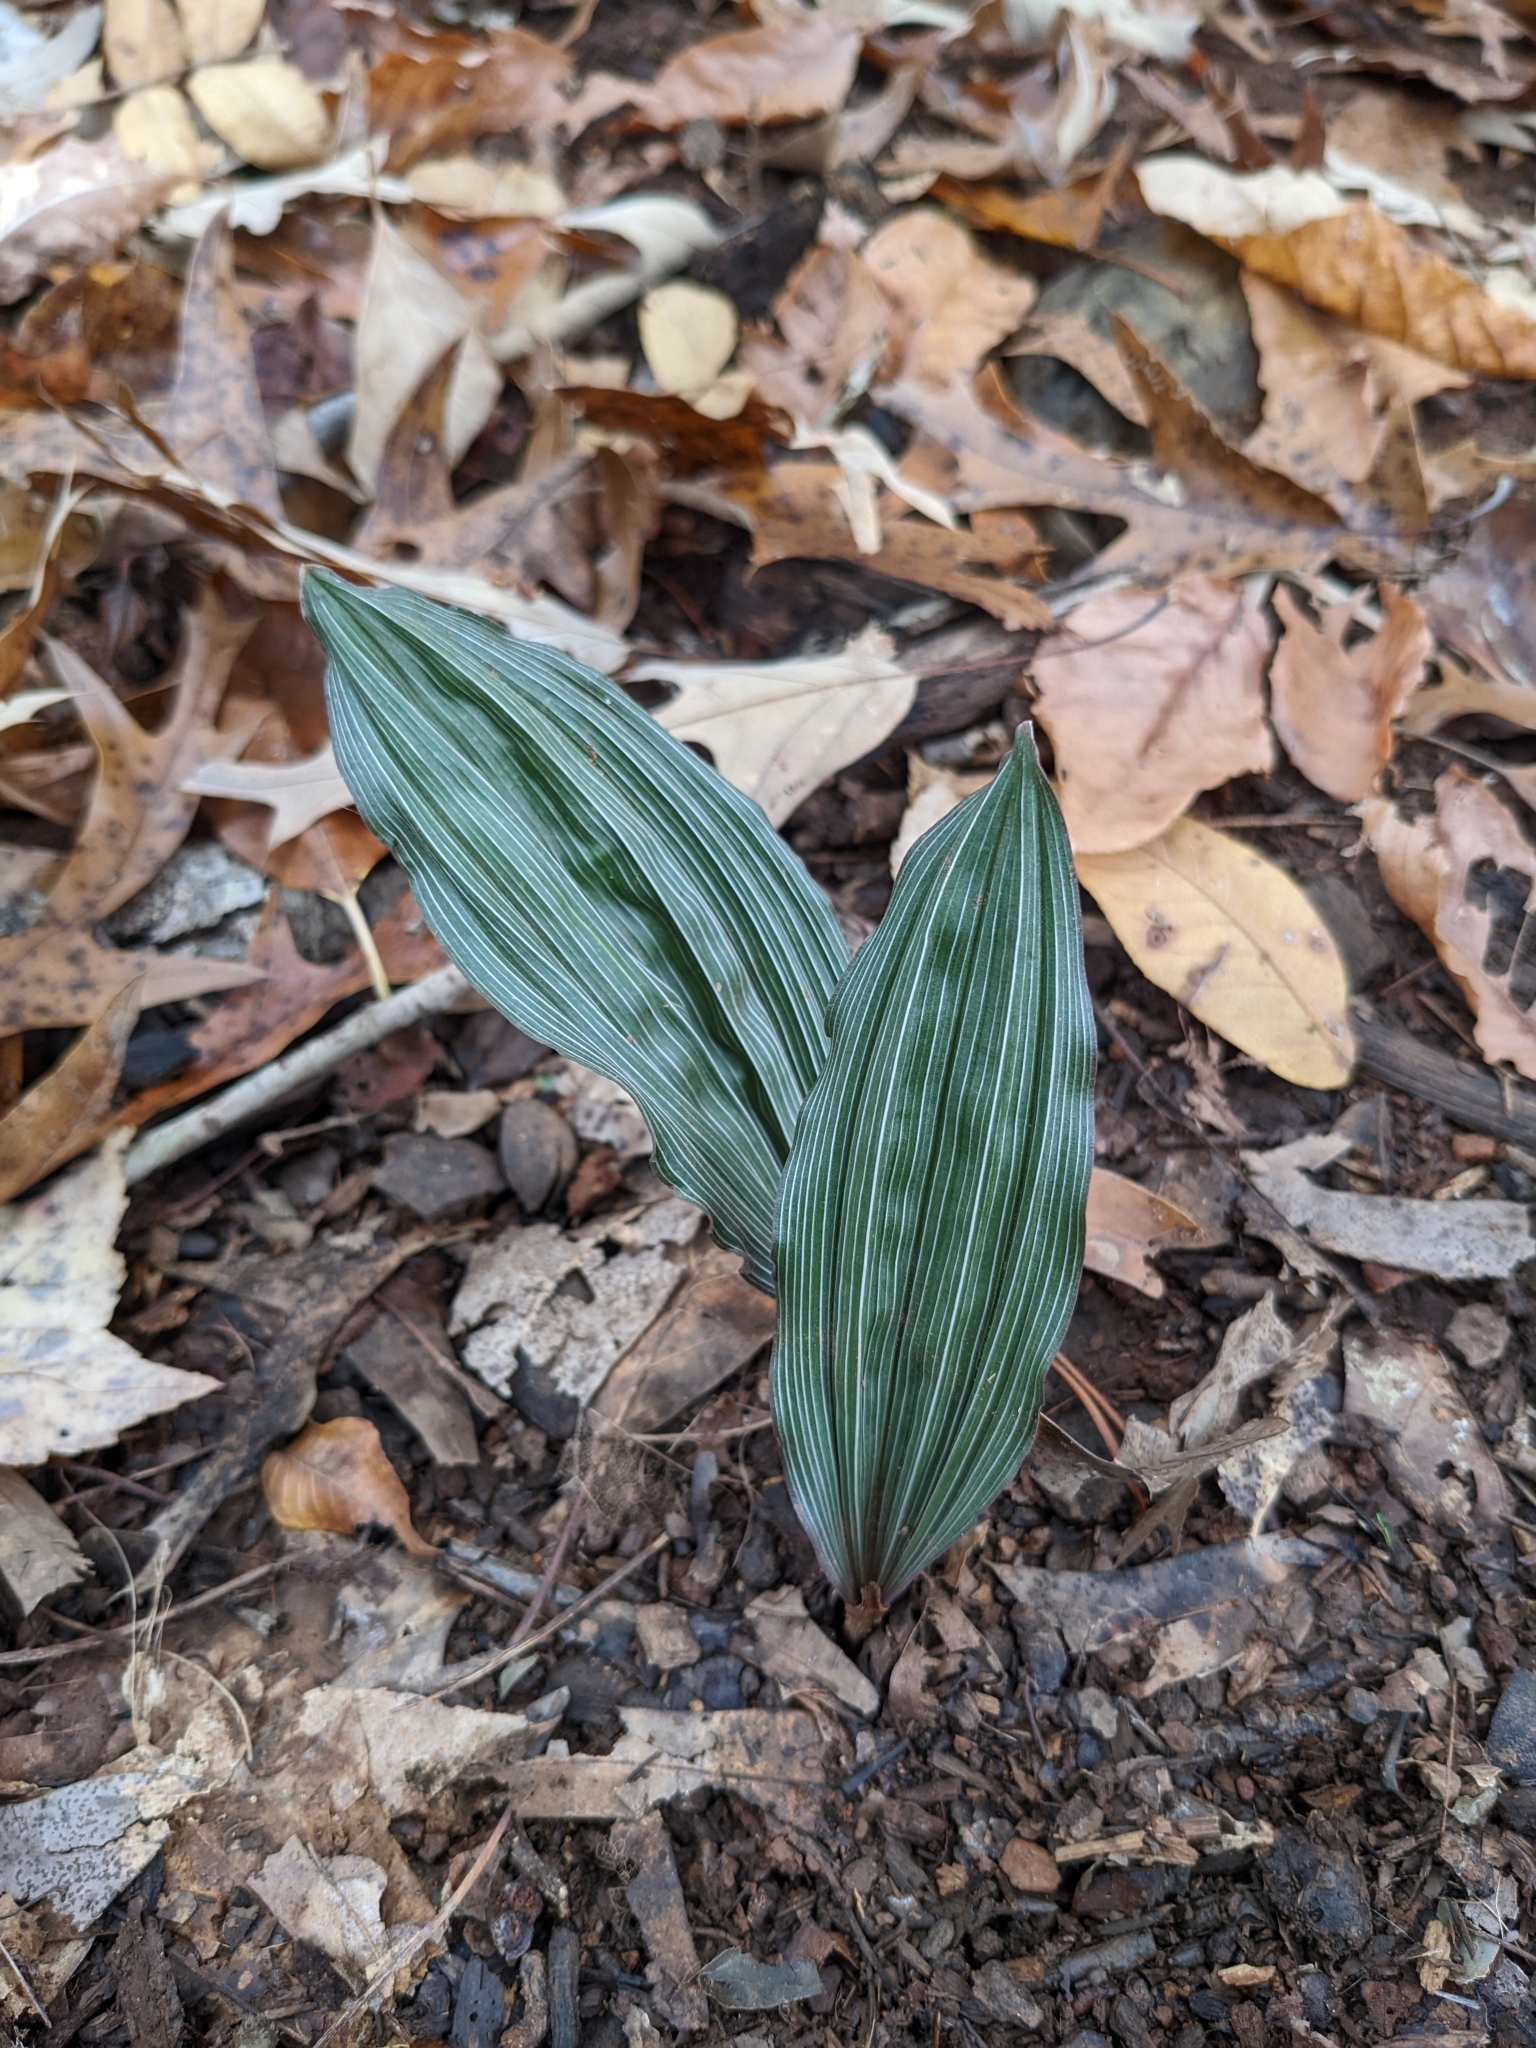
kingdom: Plantae
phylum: Tracheophyta
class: Liliopsida
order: Asparagales
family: Orchidaceae
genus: Aplectrum
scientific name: Aplectrum hyemale
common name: Adam-and-eve
